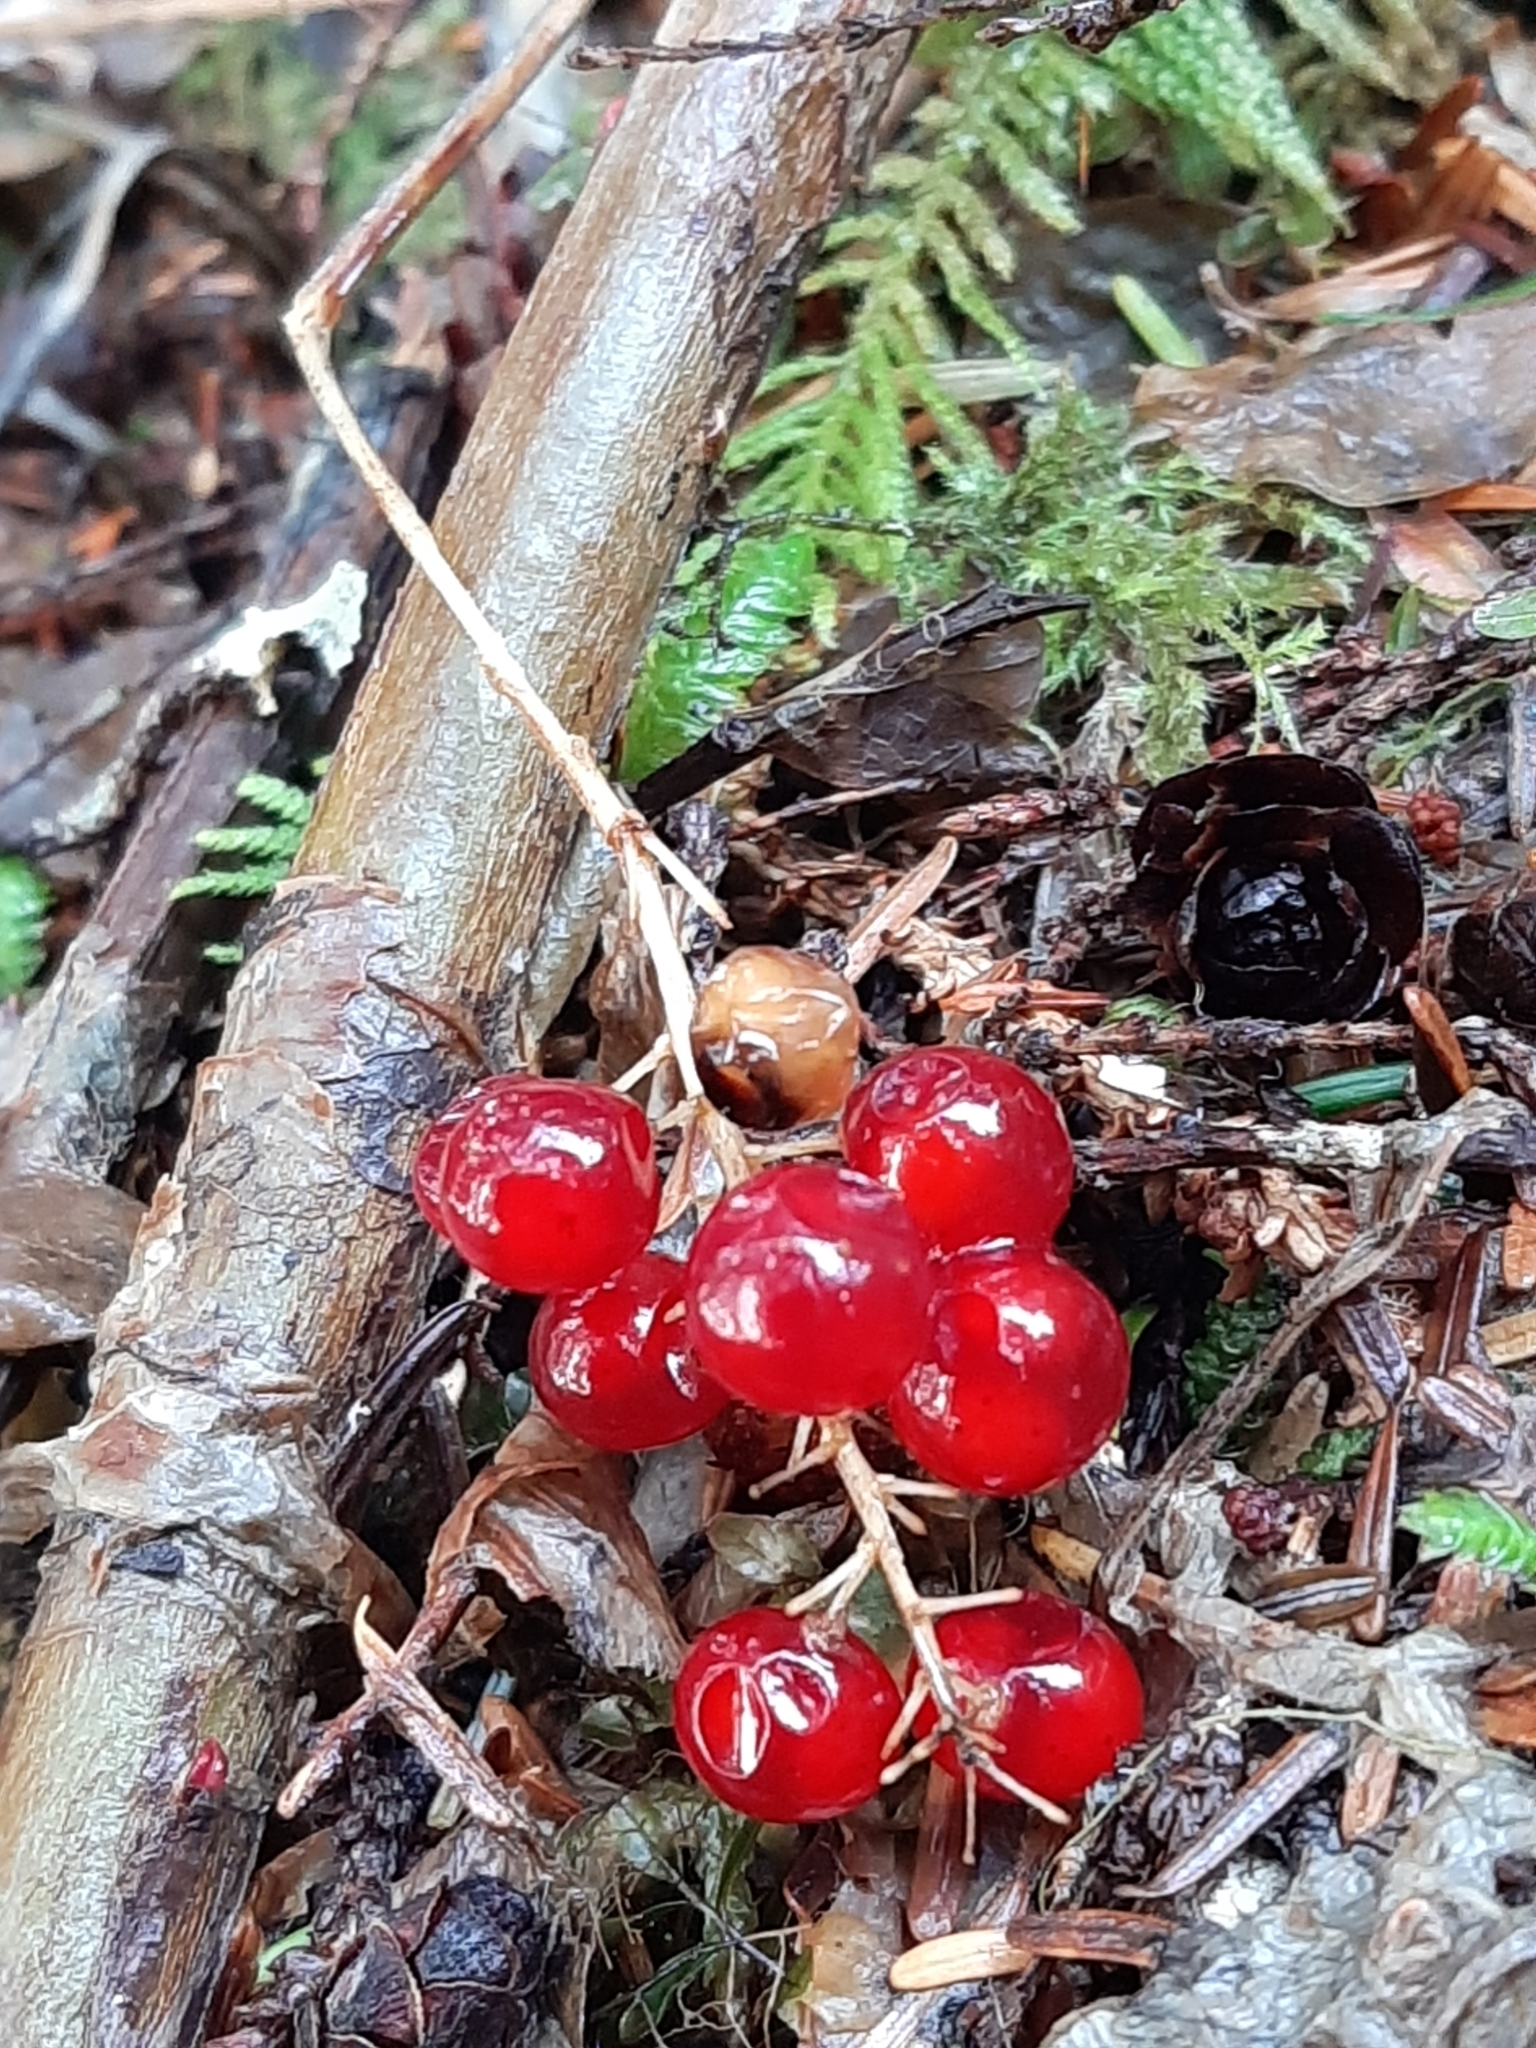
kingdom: Plantae
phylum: Tracheophyta
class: Liliopsida
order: Asparagales
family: Asparagaceae
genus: Maianthemum
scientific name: Maianthemum dilatatum
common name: False lily-of-the-valley
